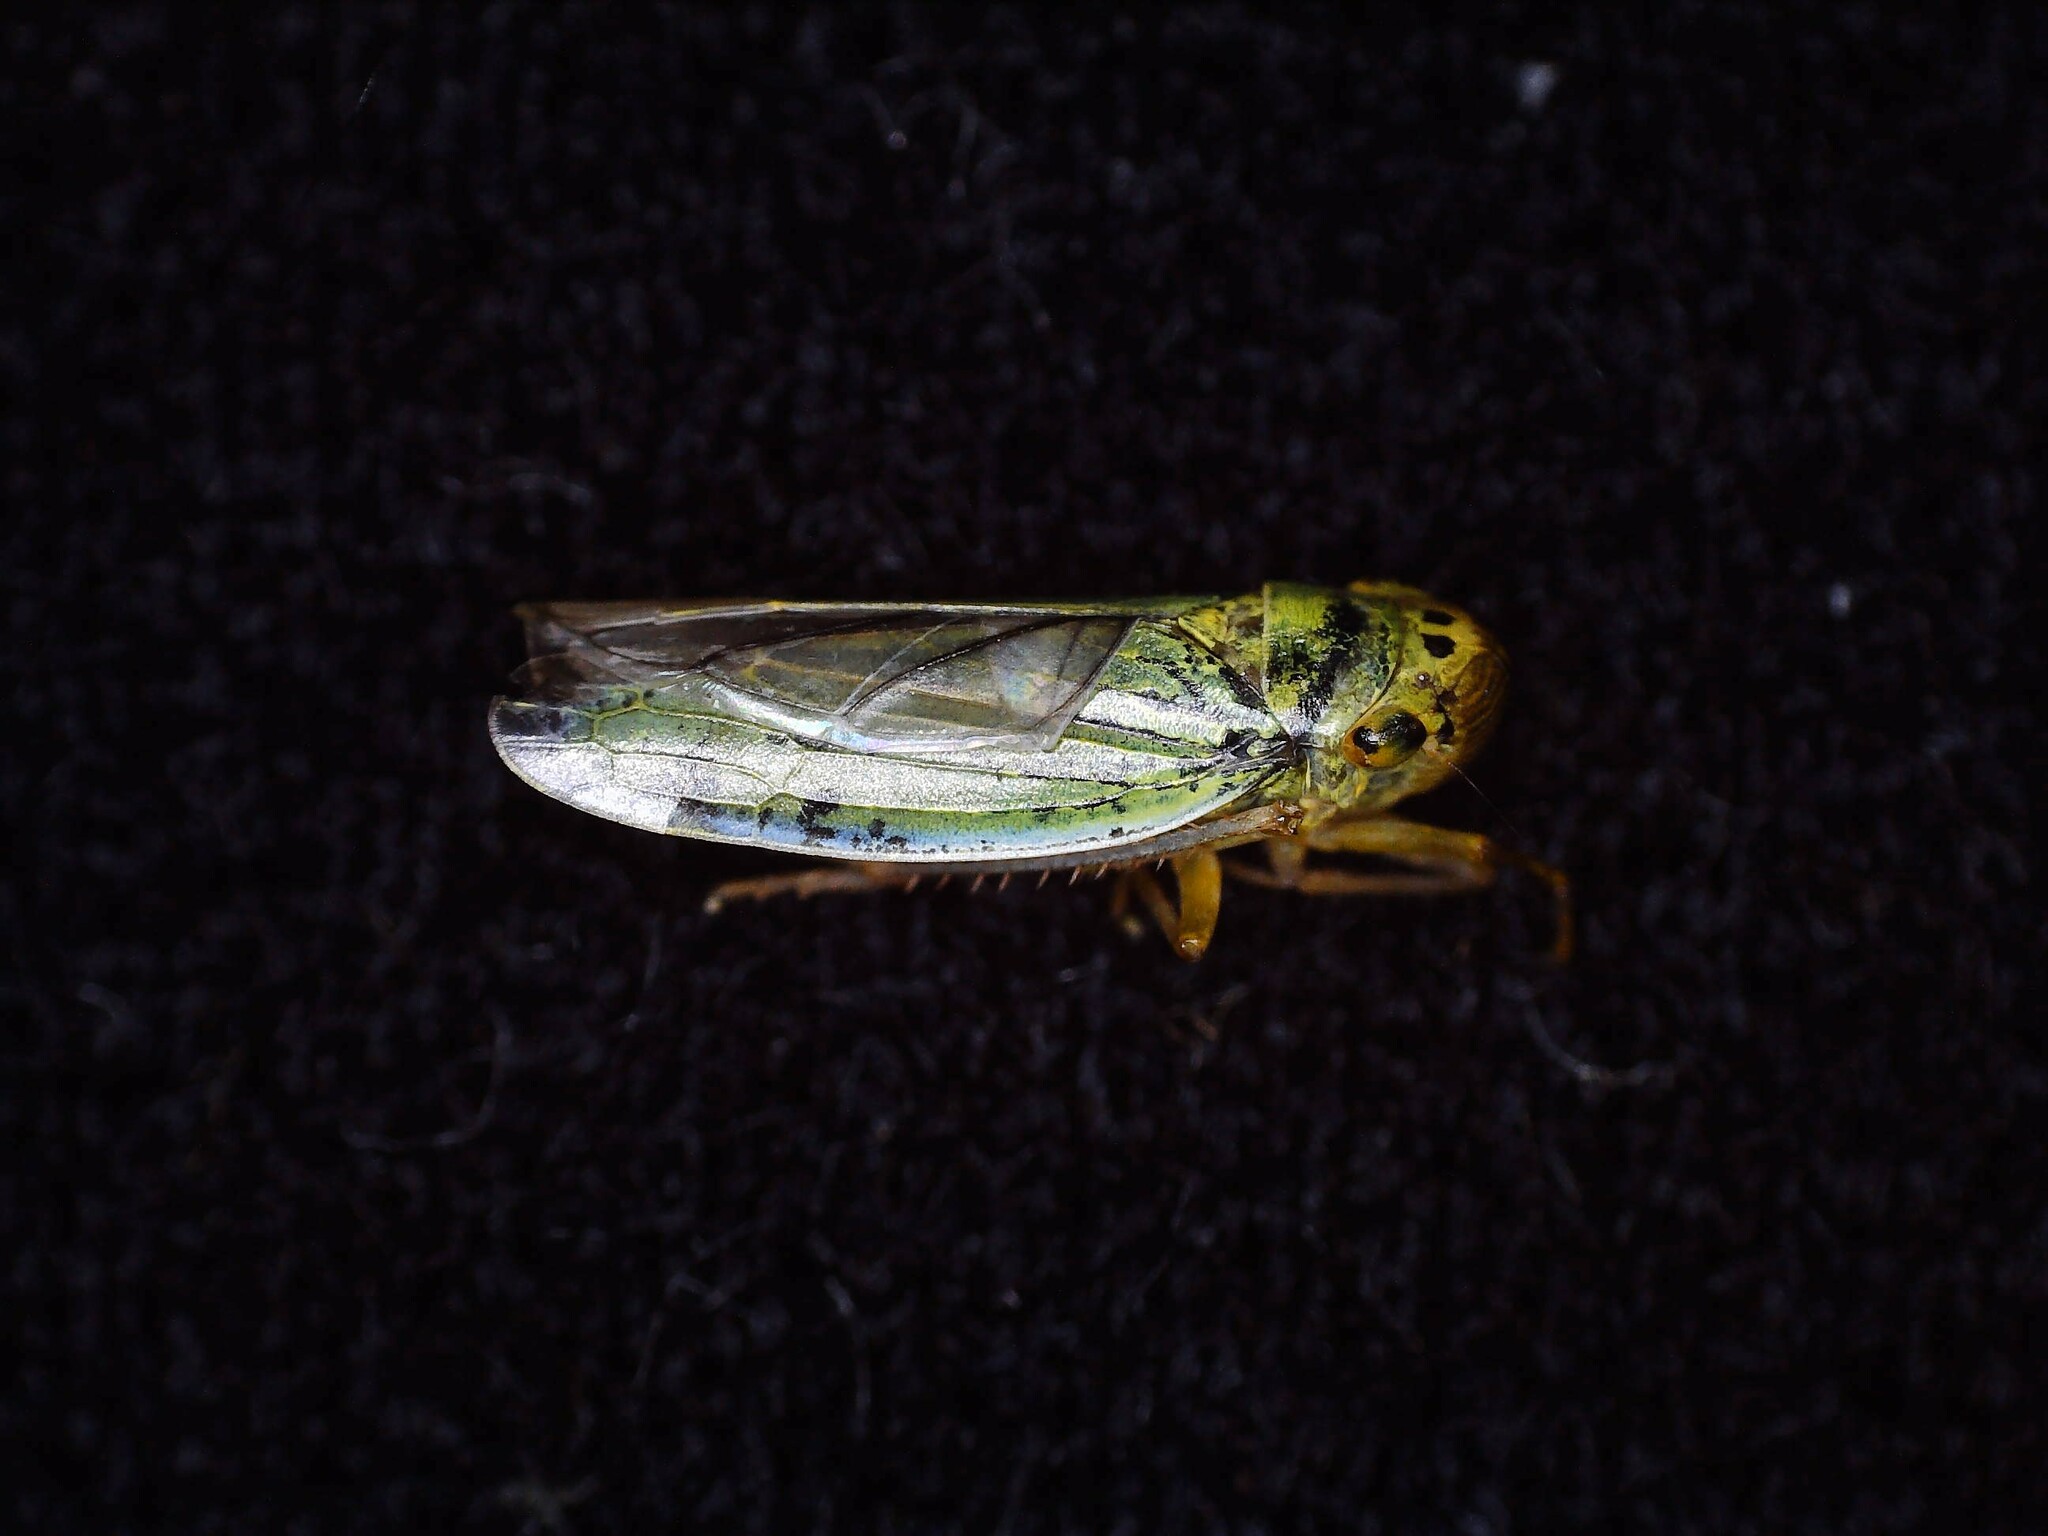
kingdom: Animalia
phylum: Arthropoda
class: Insecta
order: Hemiptera
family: Cicadellidae
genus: Cicadella
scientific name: Cicadella viridis
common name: Leafhopper
